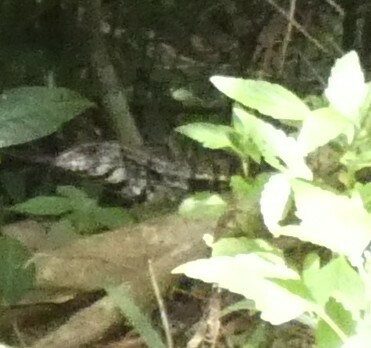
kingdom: Animalia
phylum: Chordata
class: Squamata
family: Teiidae
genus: Salvator
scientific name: Salvator merianae
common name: Argentine black and white tegu
